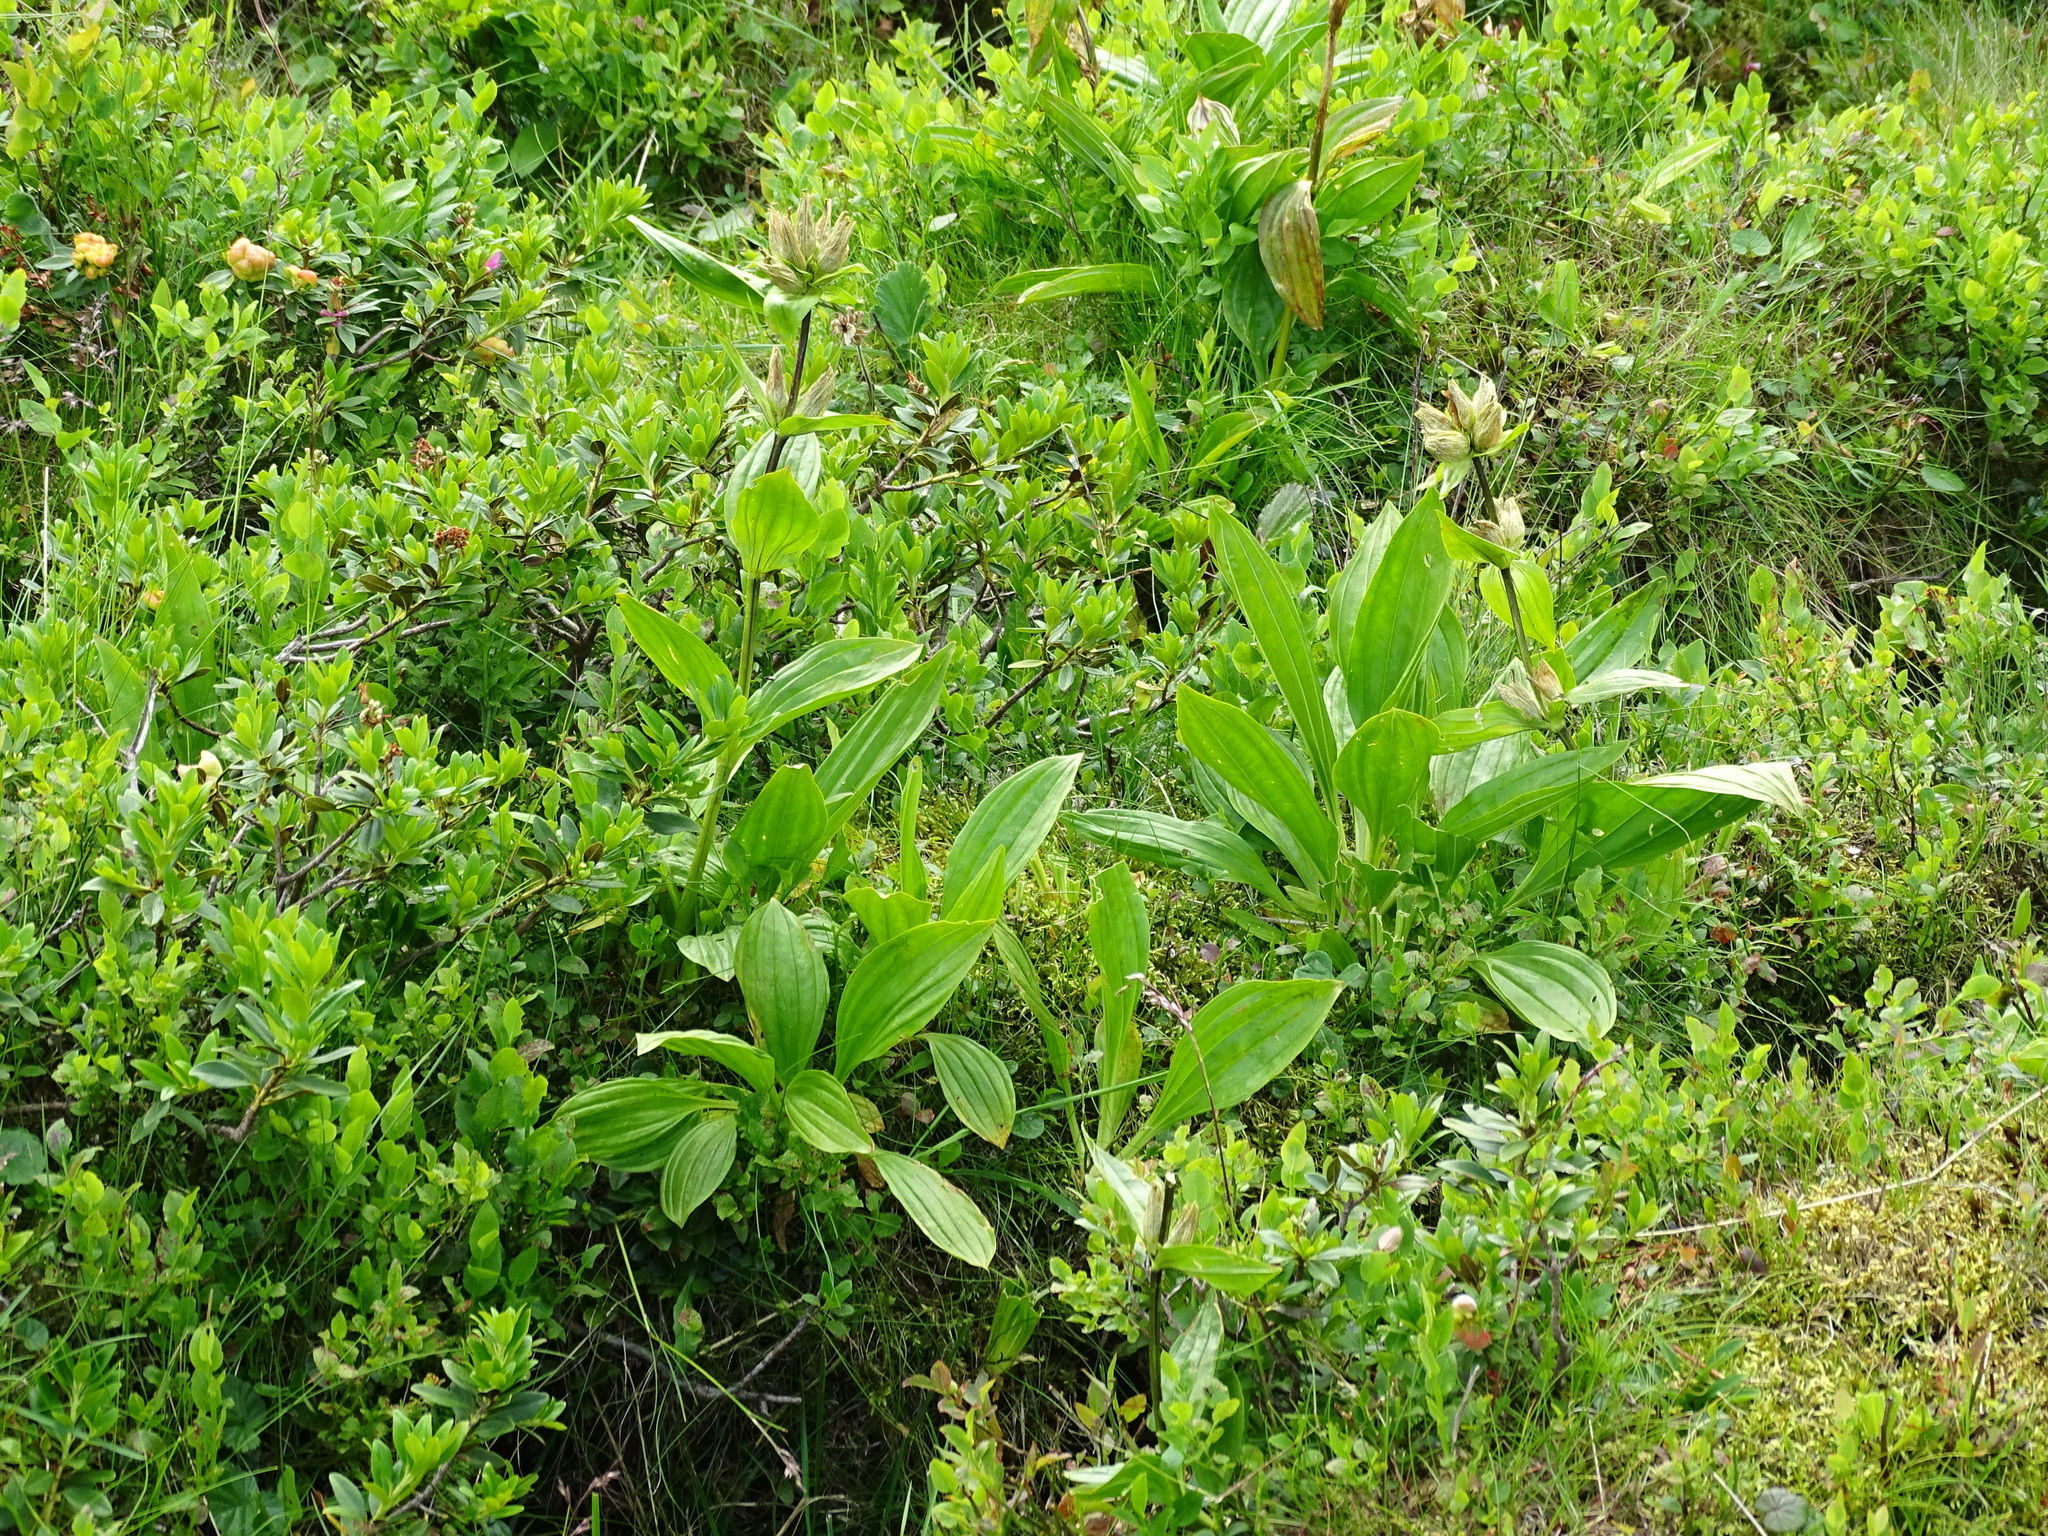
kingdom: Plantae
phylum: Tracheophyta
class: Magnoliopsida
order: Gentianales
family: Gentianaceae
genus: Gentiana
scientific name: Gentiana punctata
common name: Spotted gentian
